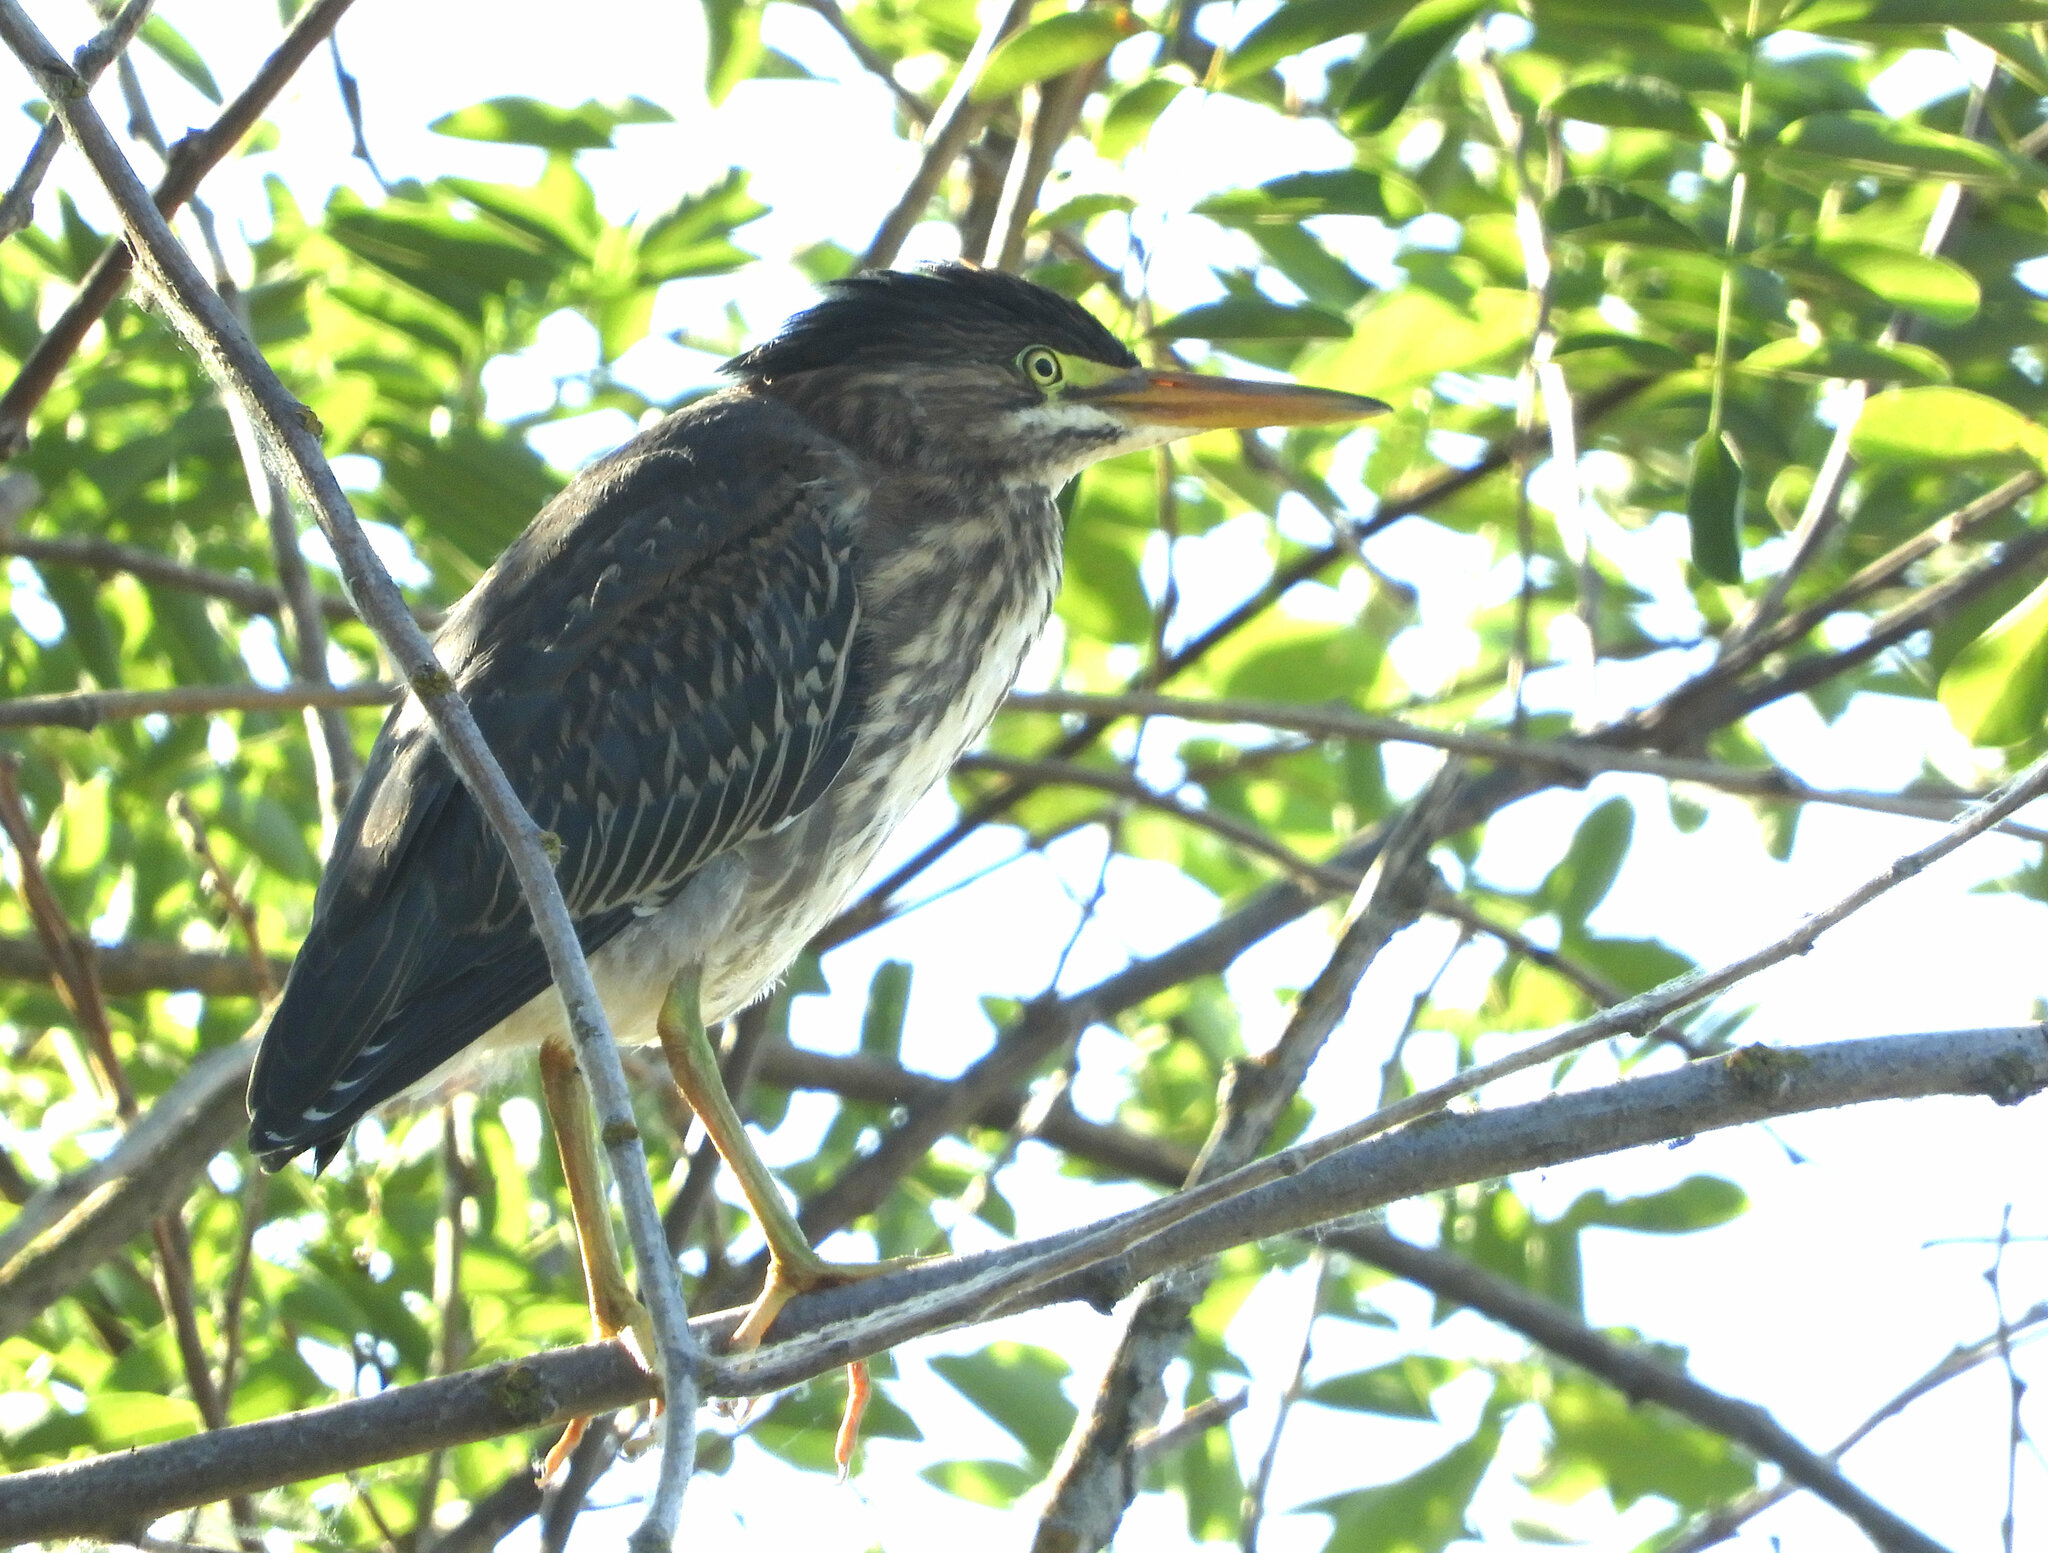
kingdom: Animalia
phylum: Chordata
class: Aves
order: Pelecaniformes
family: Ardeidae
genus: Butorides
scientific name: Butorides virescens
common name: Green heron
